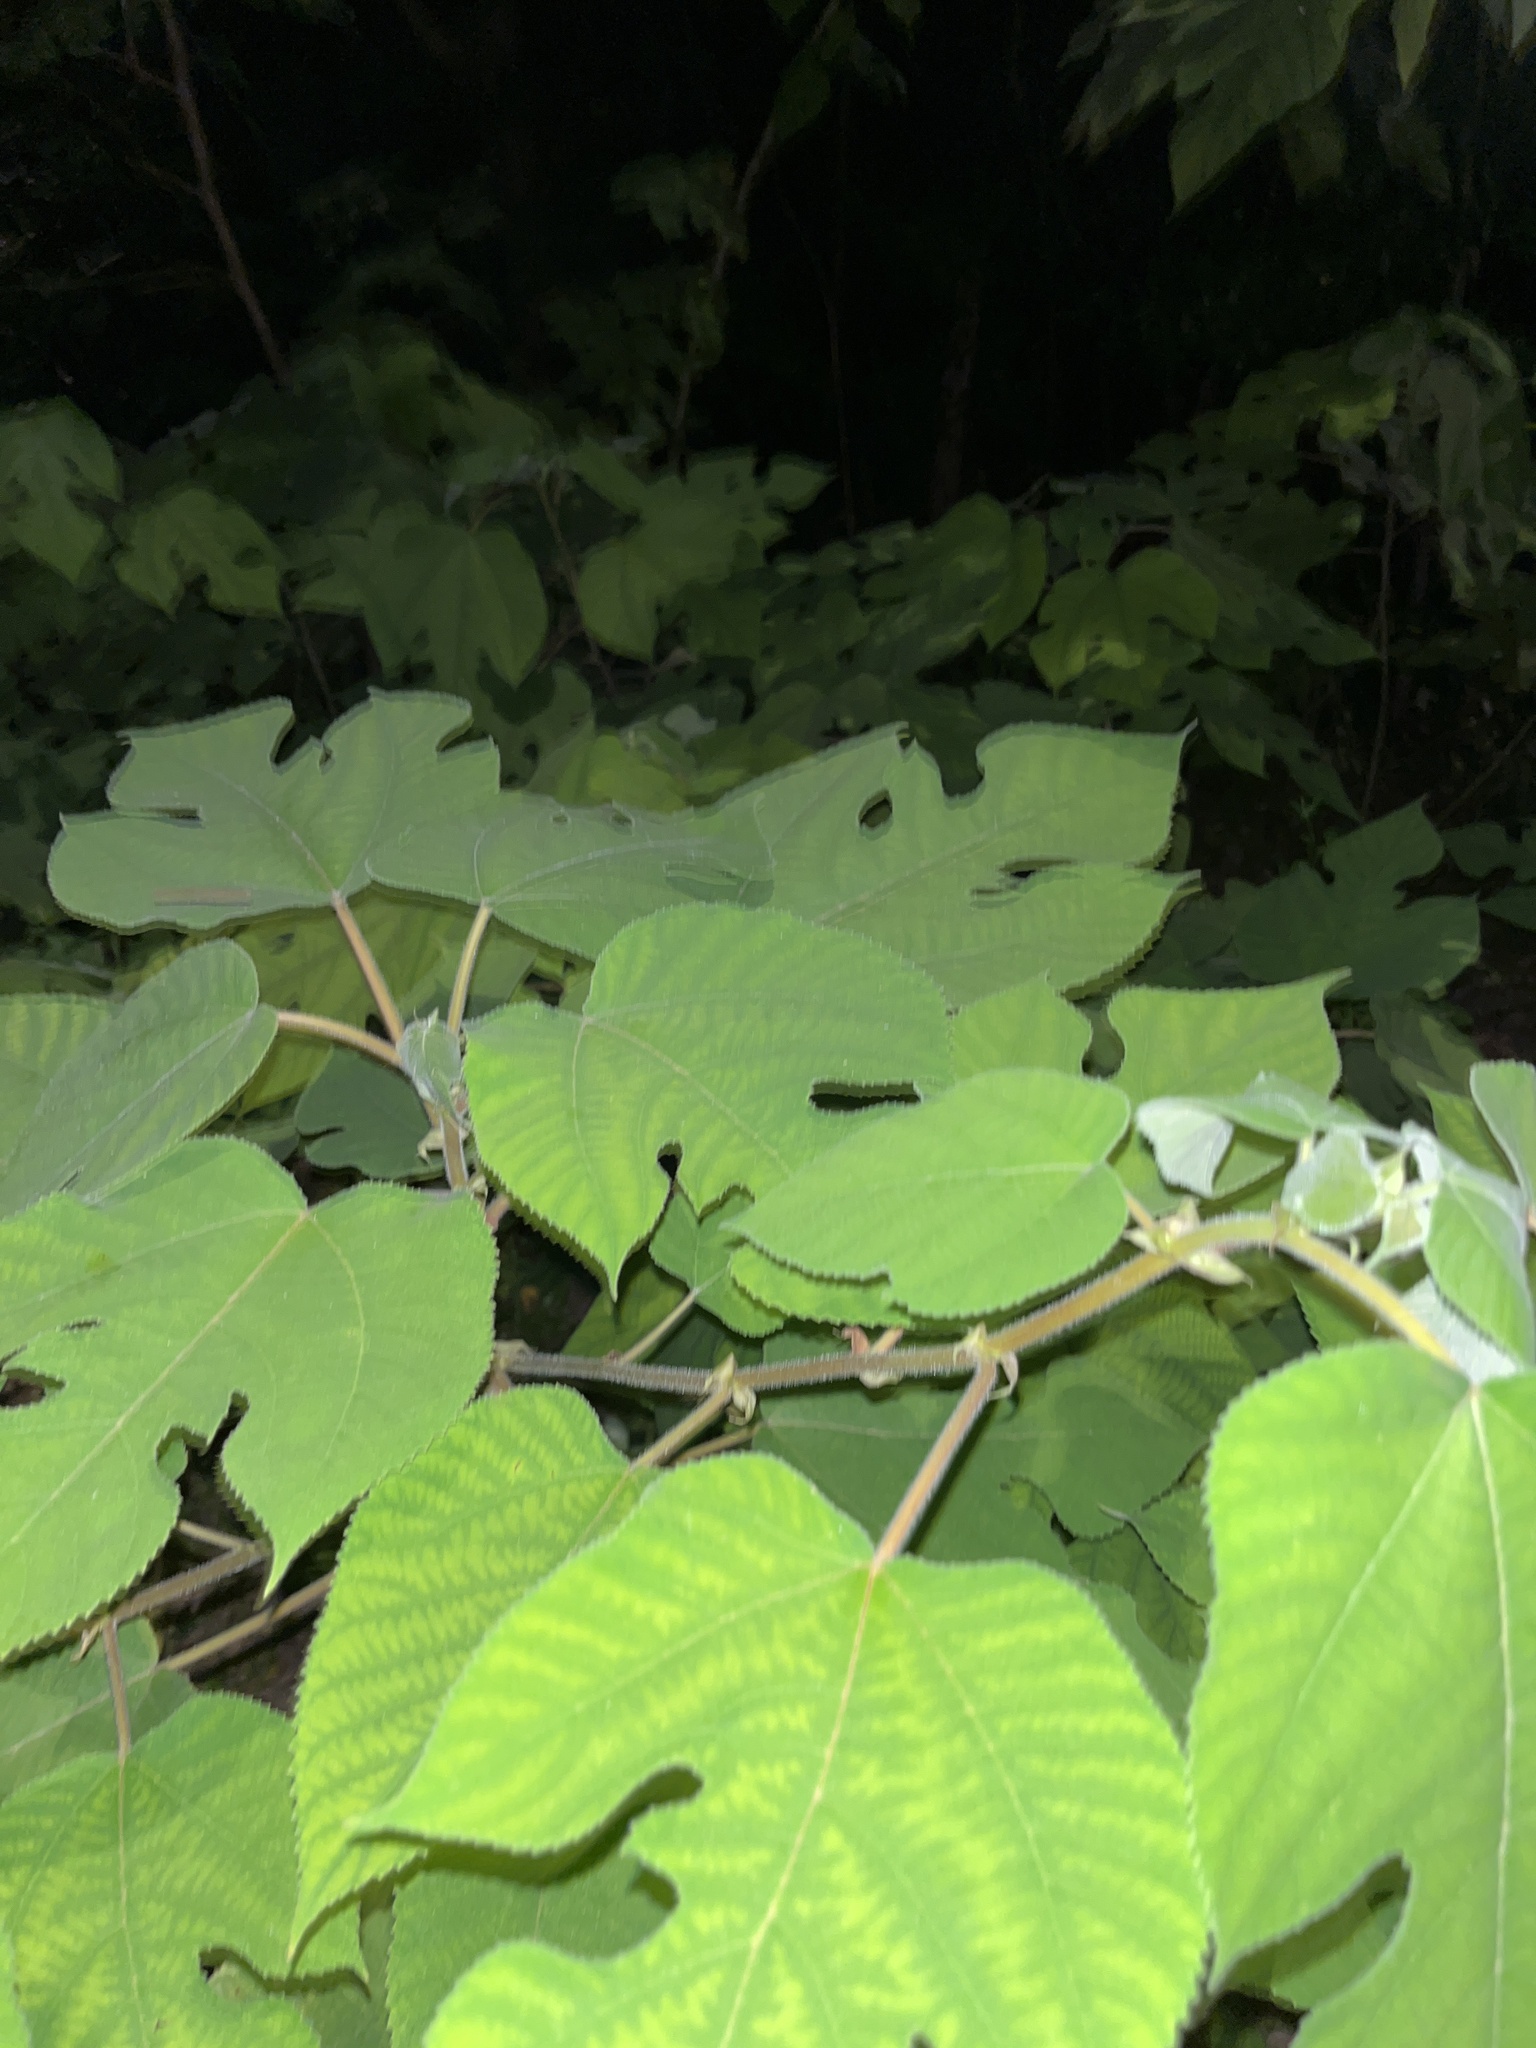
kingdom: Plantae
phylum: Tracheophyta
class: Magnoliopsida
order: Rosales
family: Moraceae
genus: Broussonetia
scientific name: Broussonetia papyrifera
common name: Paper mulberry
